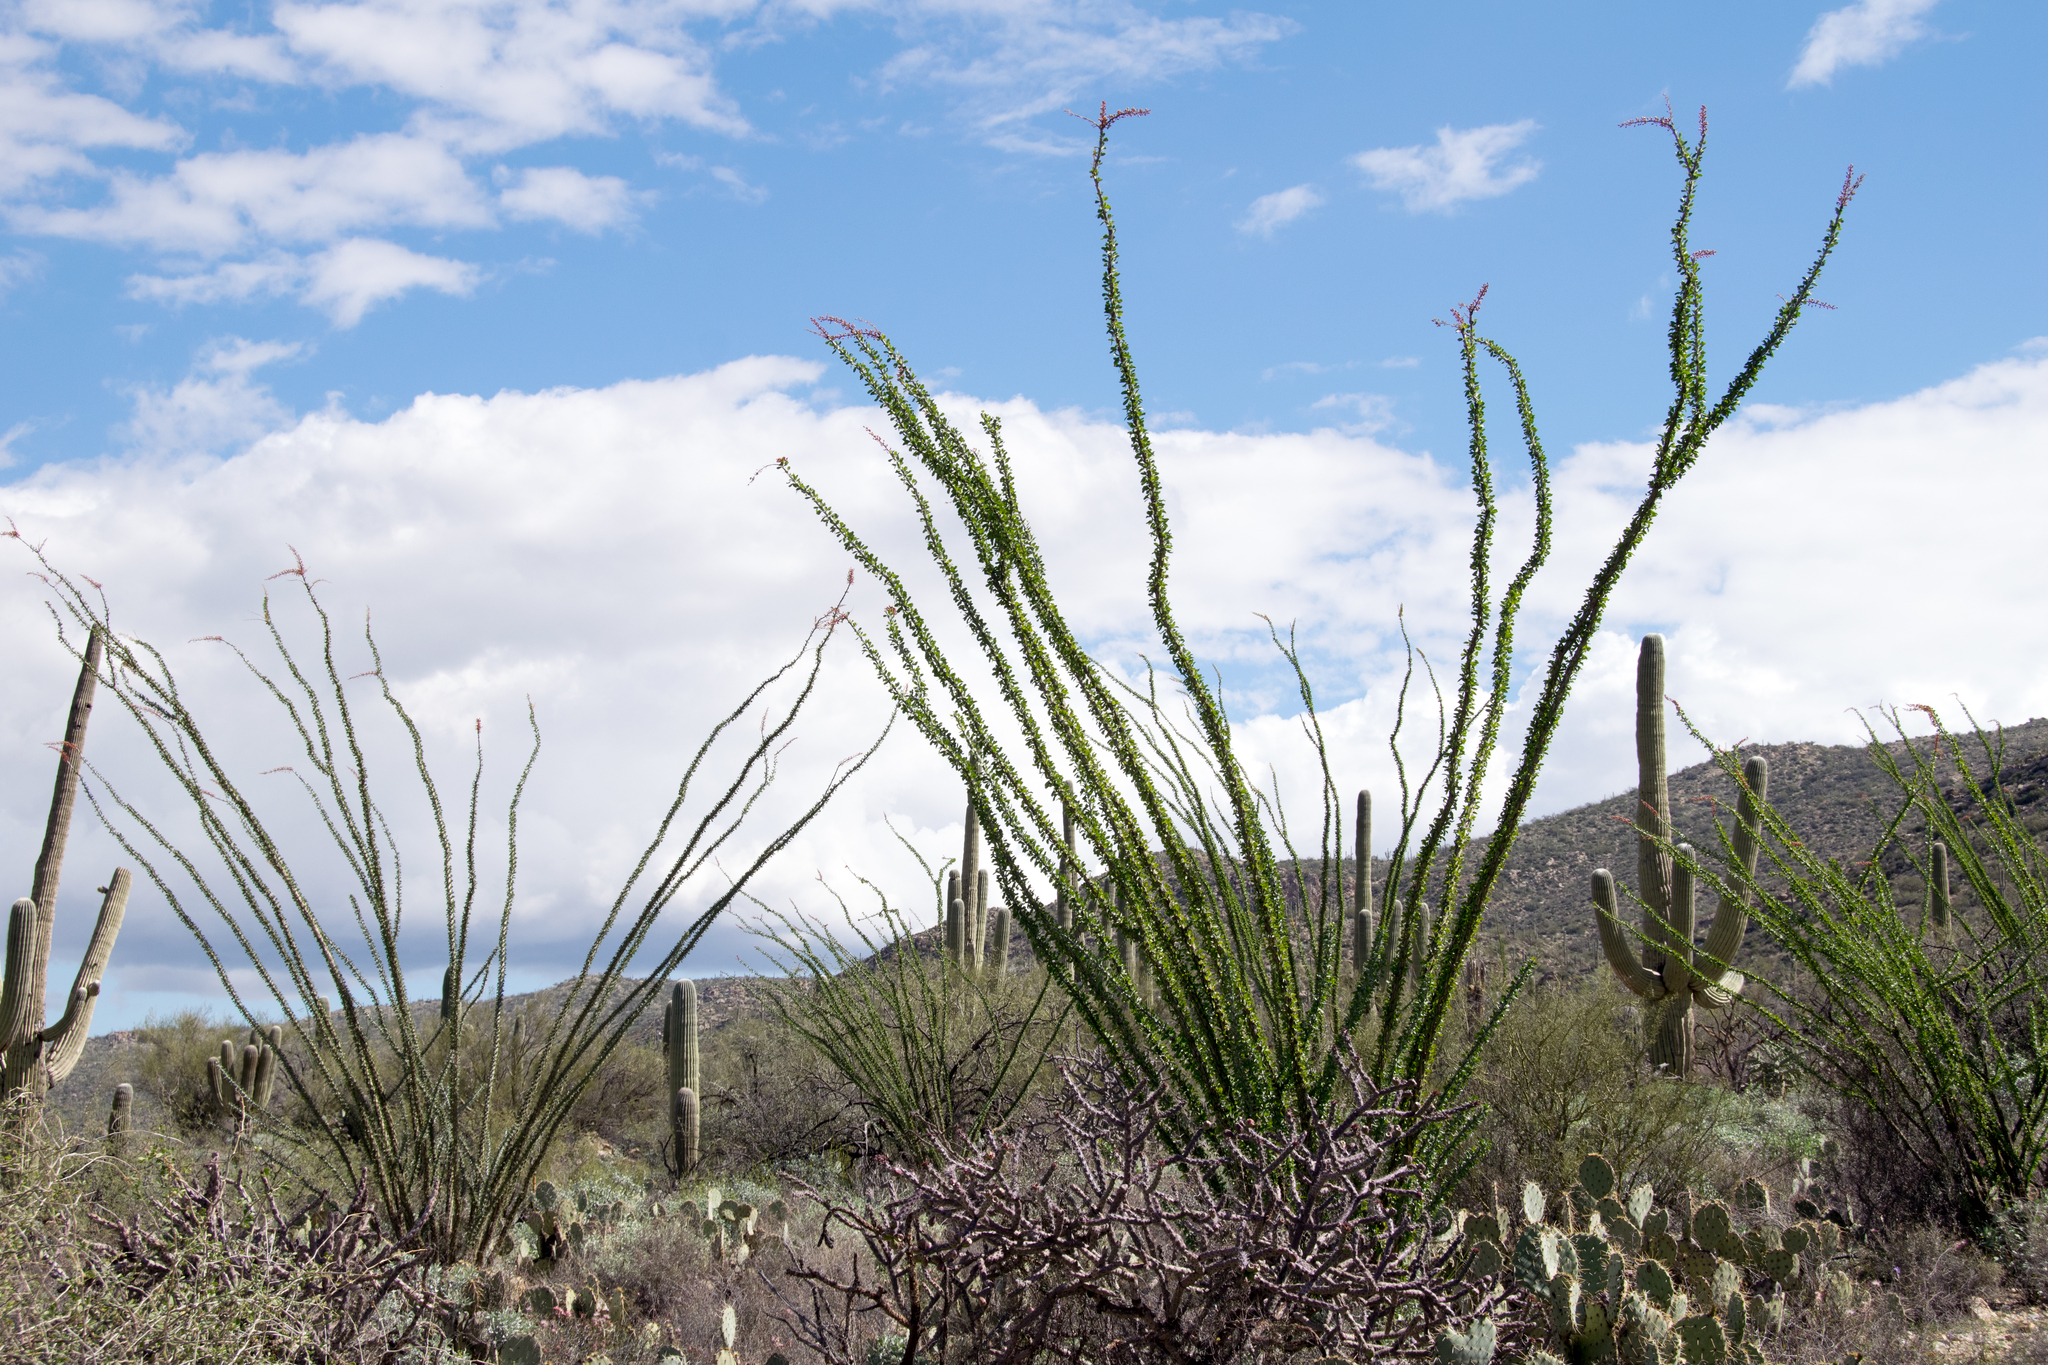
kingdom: Plantae
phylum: Tracheophyta
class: Magnoliopsida
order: Ericales
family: Fouquieriaceae
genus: Fouquieria
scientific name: Fouquieria splendens
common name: Vine-cactus
